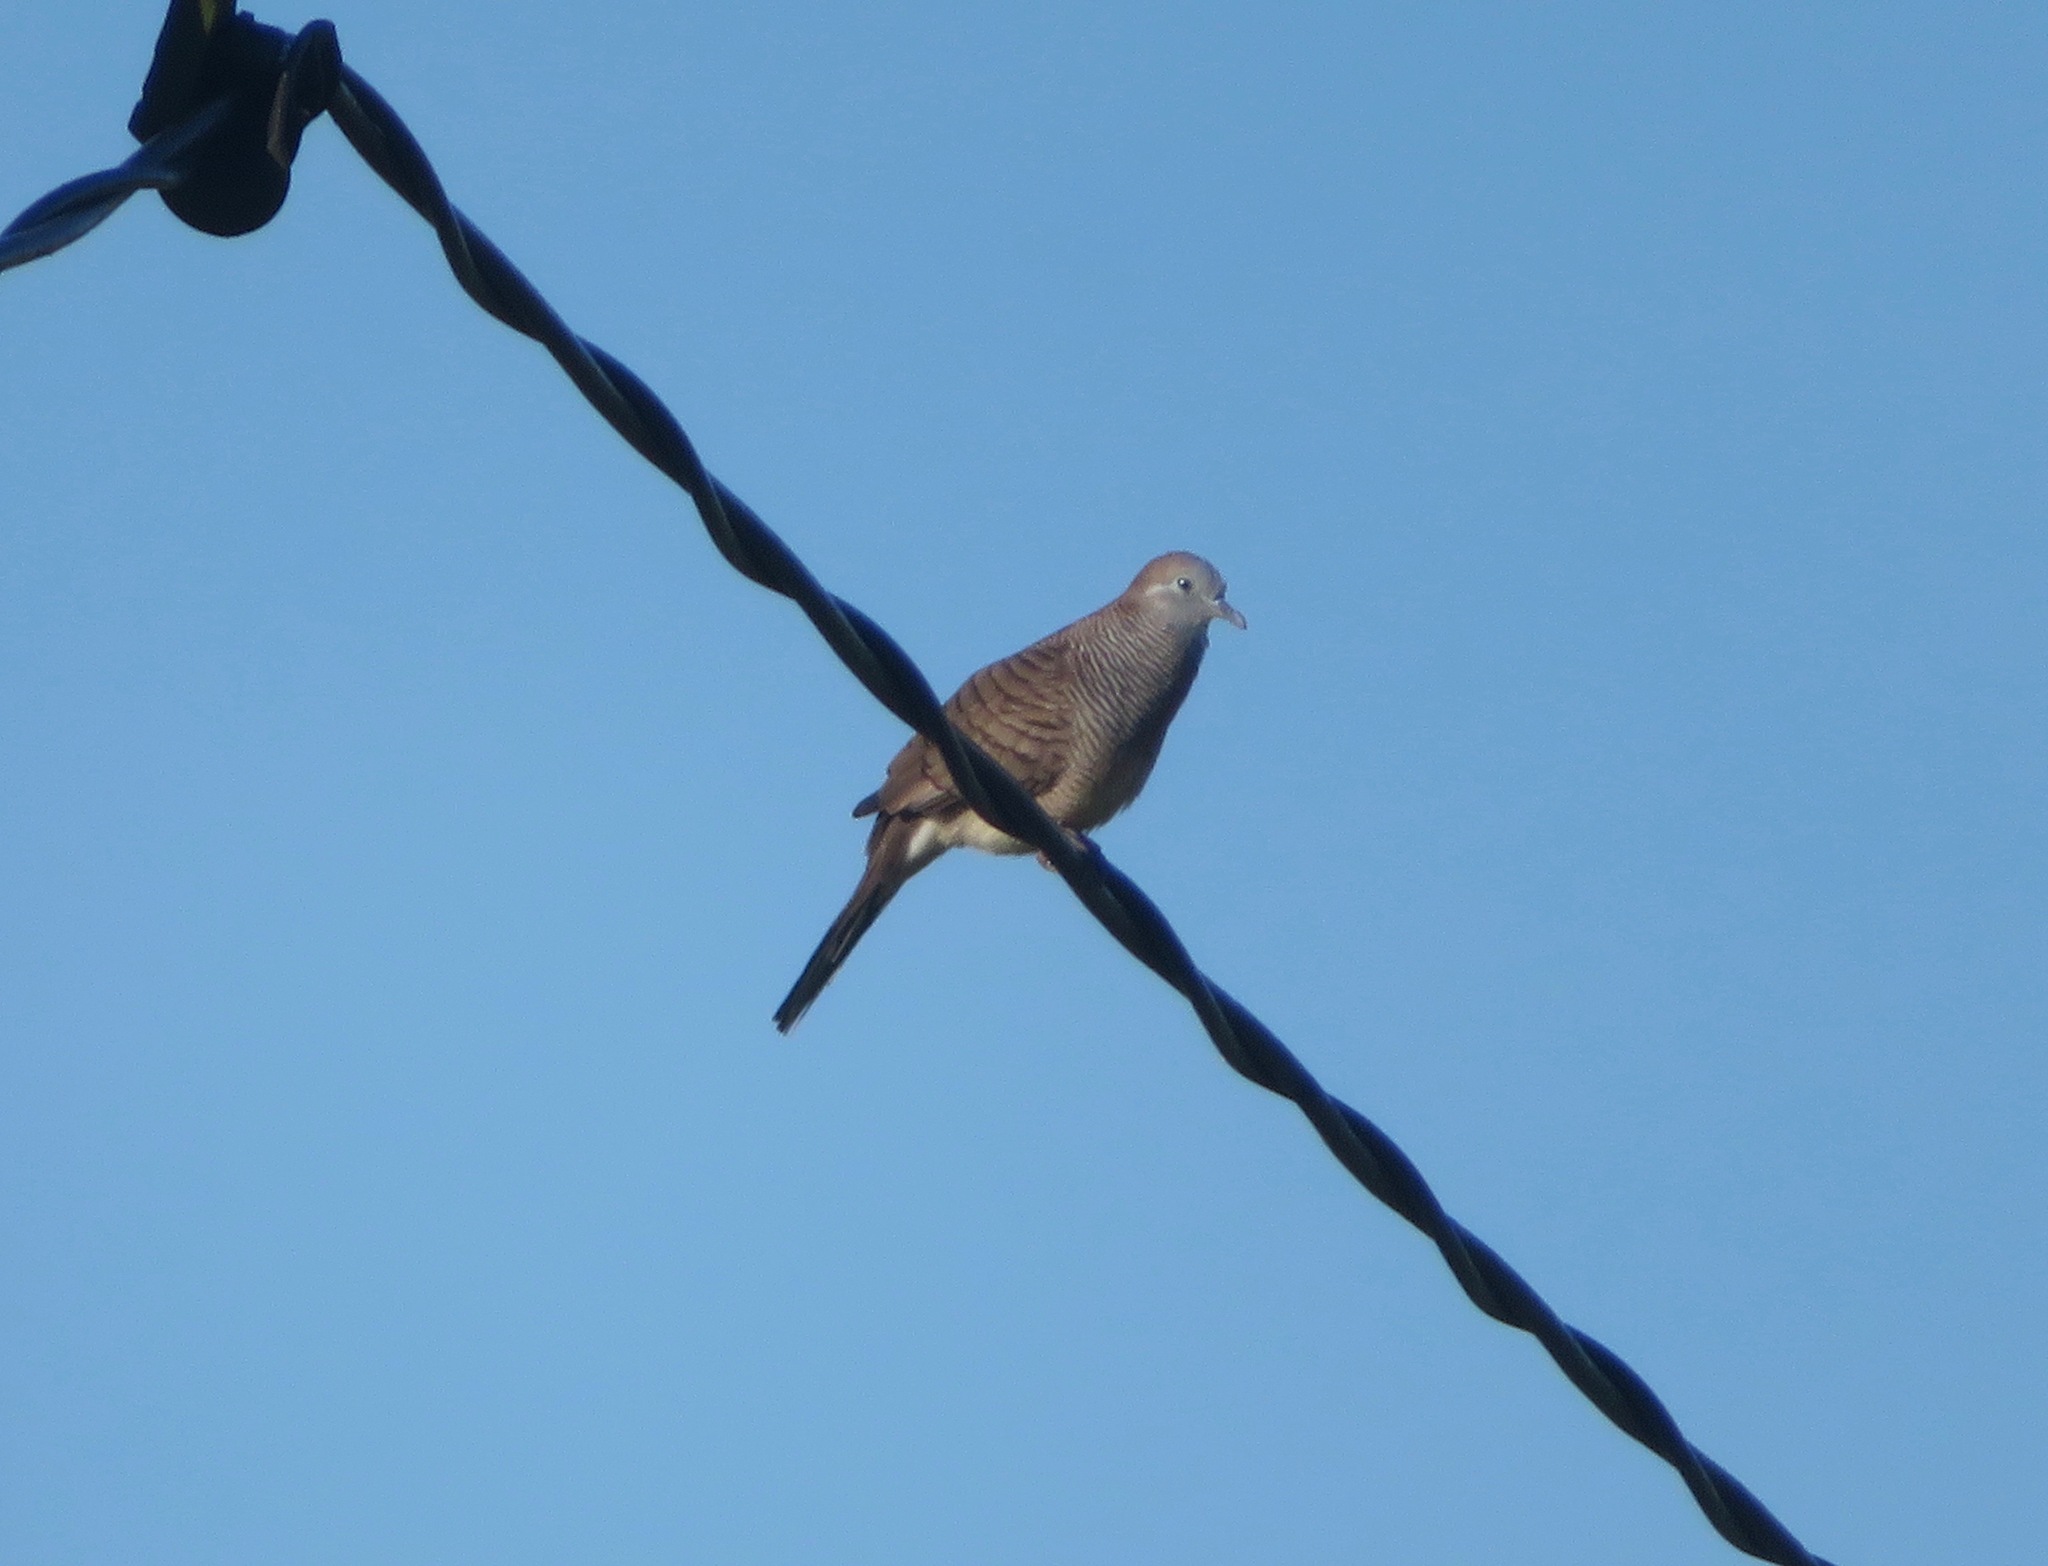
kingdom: Animalia
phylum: Chordata
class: Aves
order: Columbiformes
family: Columbidae
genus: Geopelia
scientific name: Geopelia striata
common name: Zebra dove
